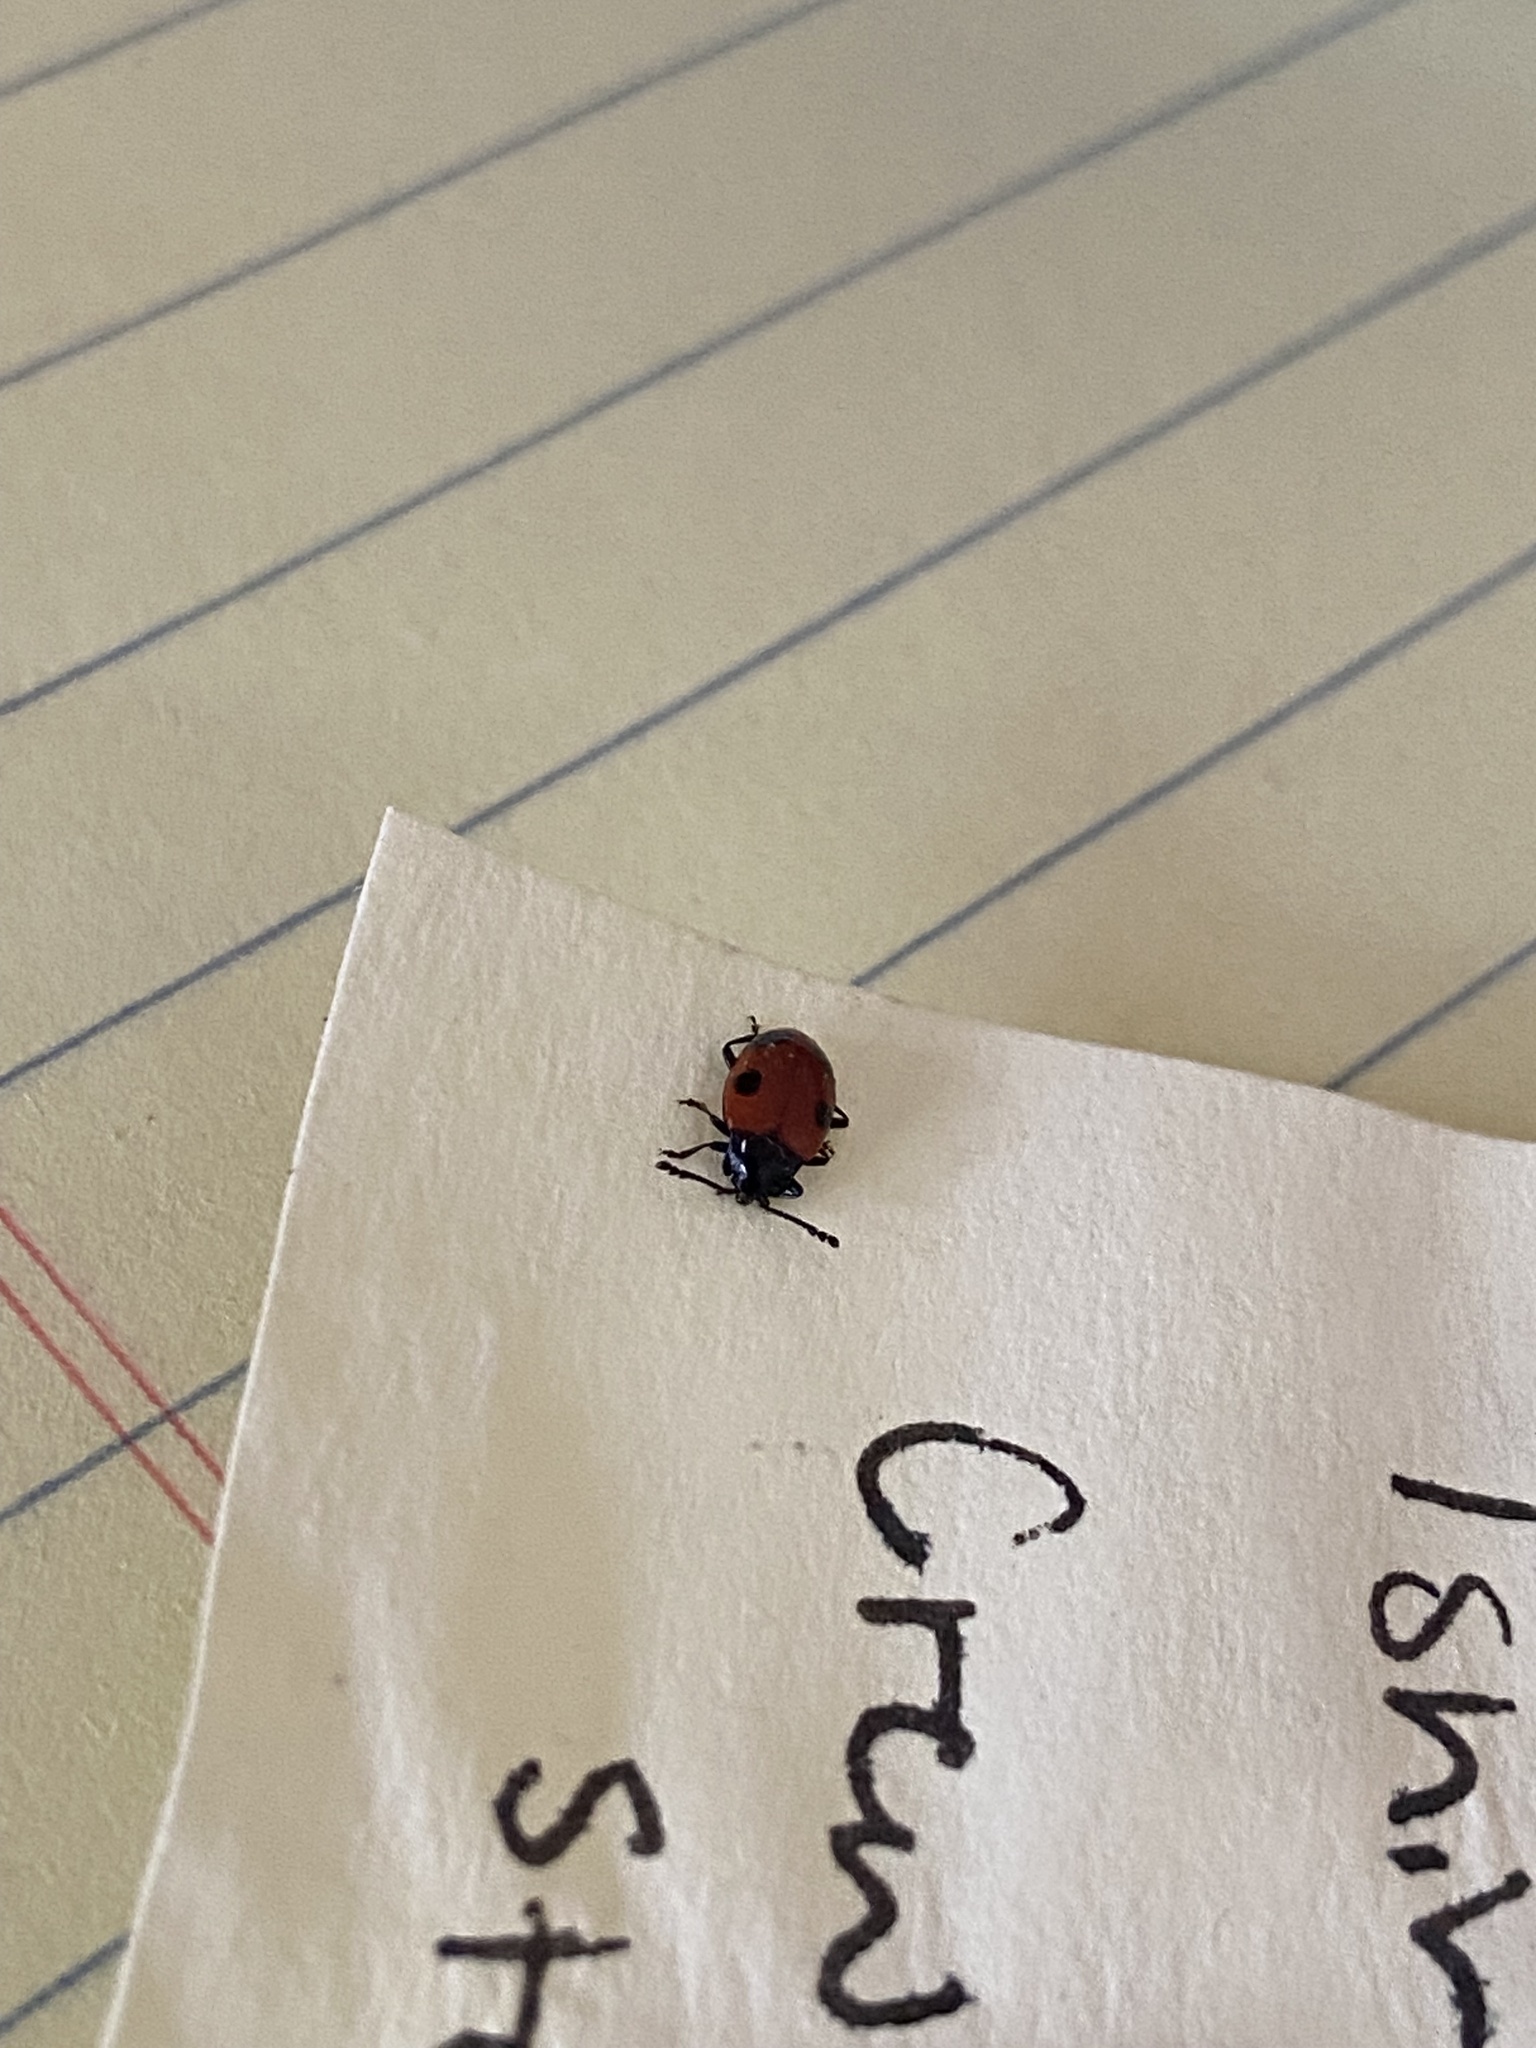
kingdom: Animalia
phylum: Arthropoda
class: Insecta
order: Coleoptera
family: Endomychidae
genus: Endomychus
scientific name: Endomychus biguttatus
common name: Handsome fungus beetle
